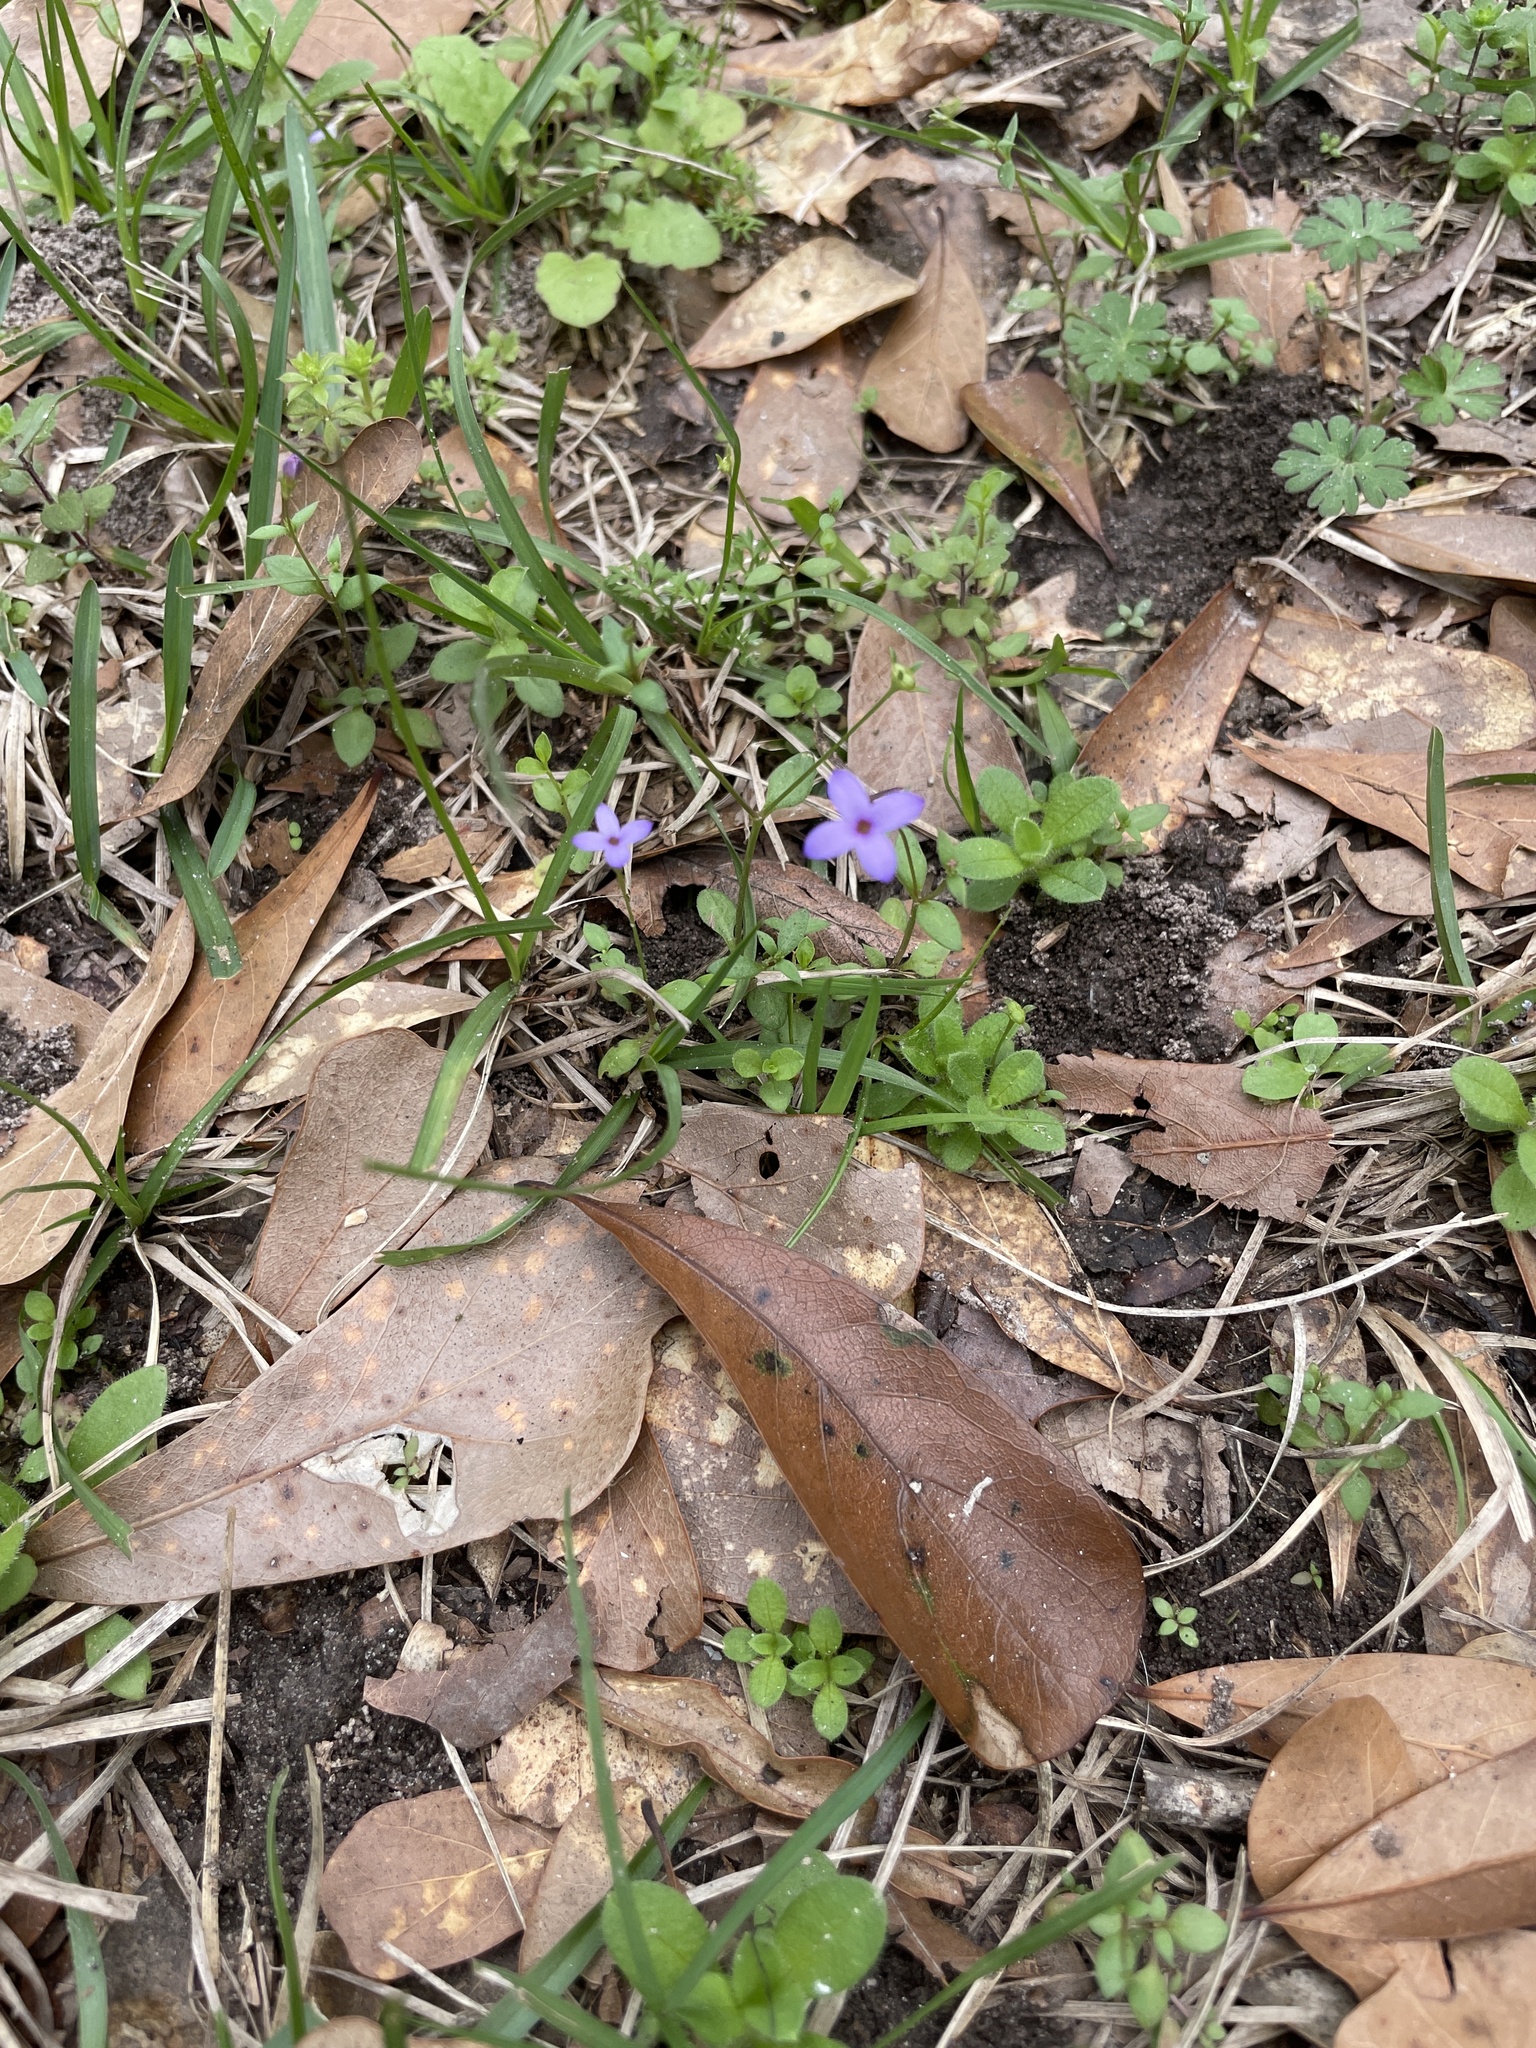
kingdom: Plantae
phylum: Tracheophyta
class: Magnoliopsida
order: Gentianales
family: Rubiaceae
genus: Houstonia
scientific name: Houstonia pusilla
